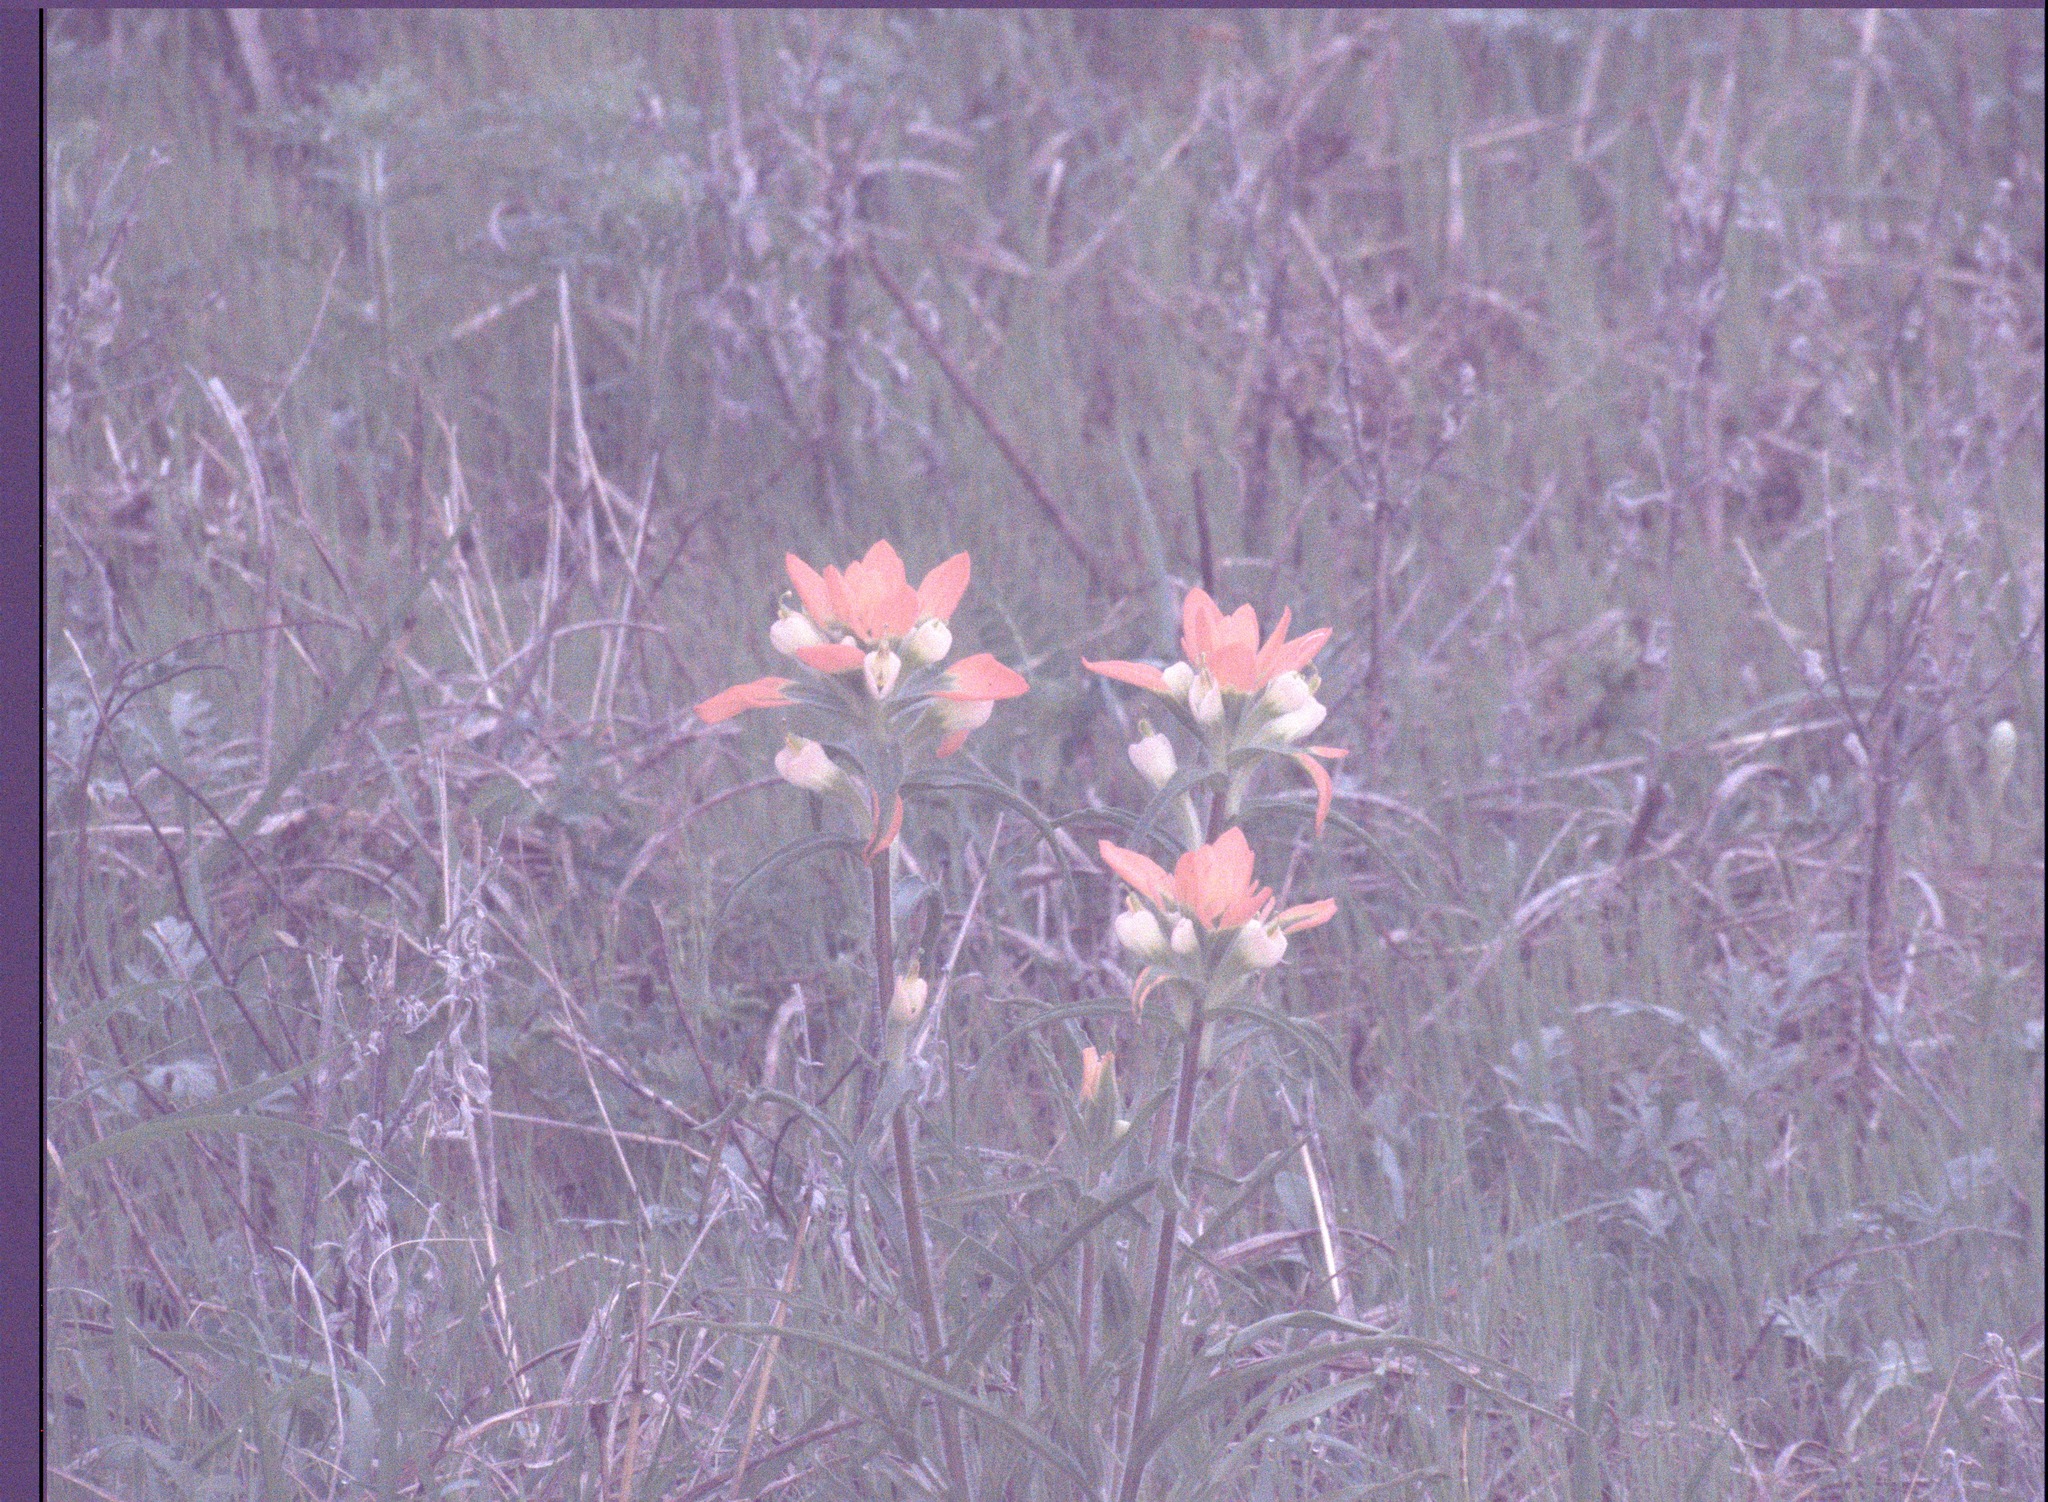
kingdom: Plantae
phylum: Tracheophyta
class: Magnoliopsida
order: Lamiales
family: Orobanchaceae
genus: Castilleja
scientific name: Castilleja indivisa
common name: Texas paintbrush
